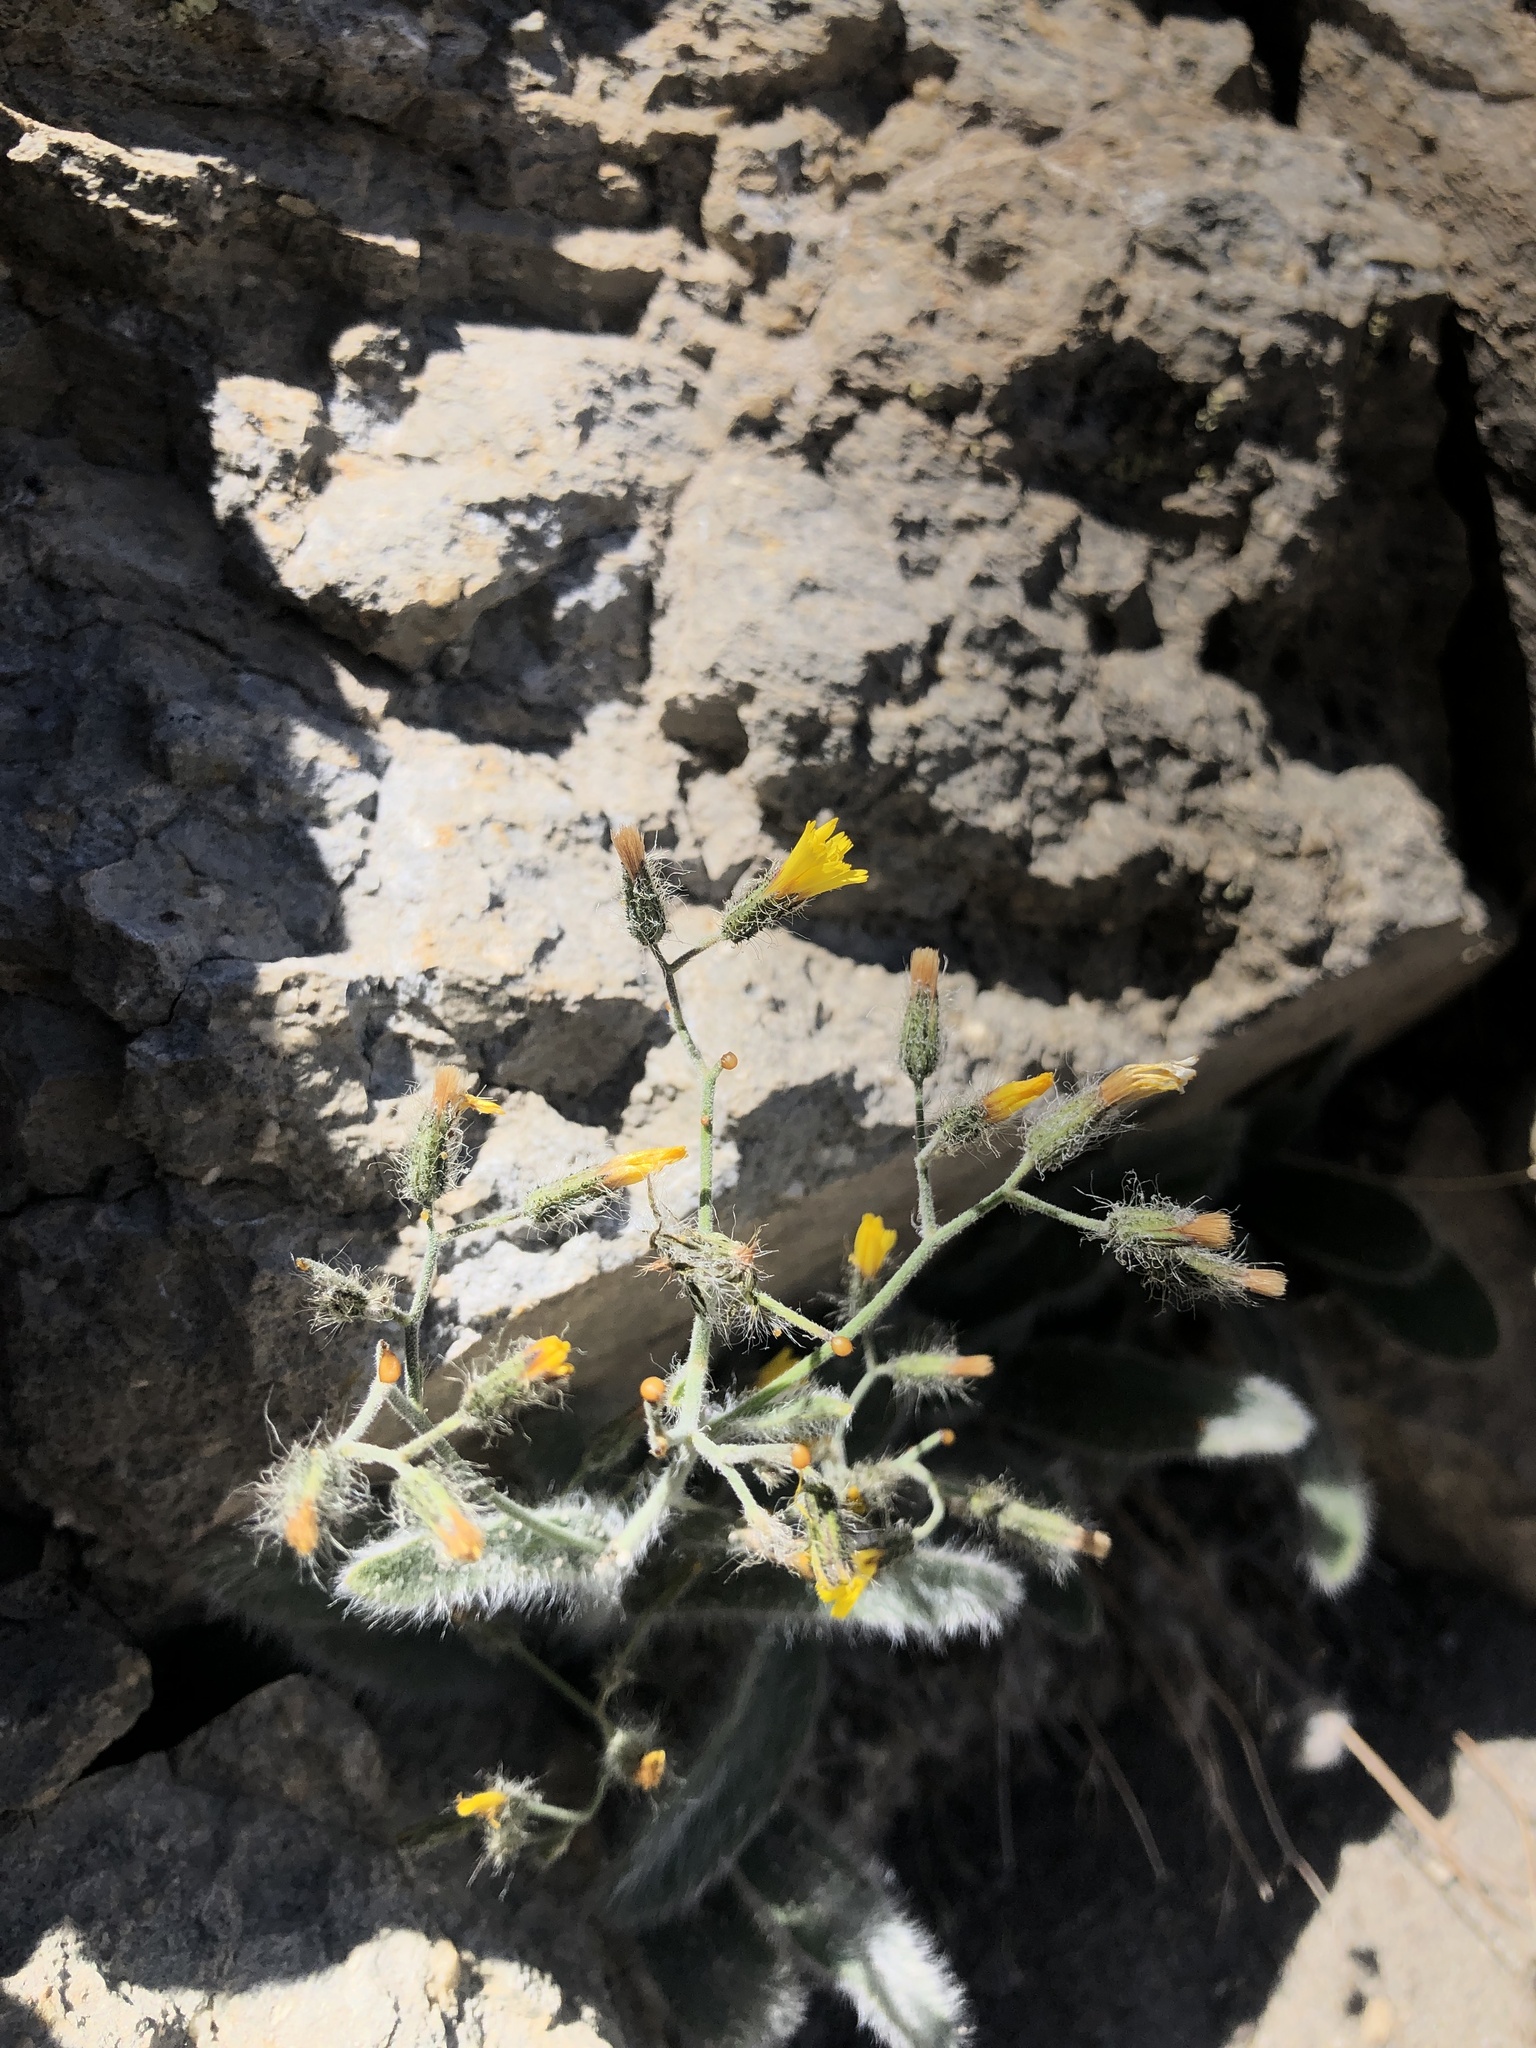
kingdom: Plantae
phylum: Tracheophyta
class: Magnoliopsida
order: Asterales
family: Asteraceae
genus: Hieracium
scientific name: Hieracium horridum
